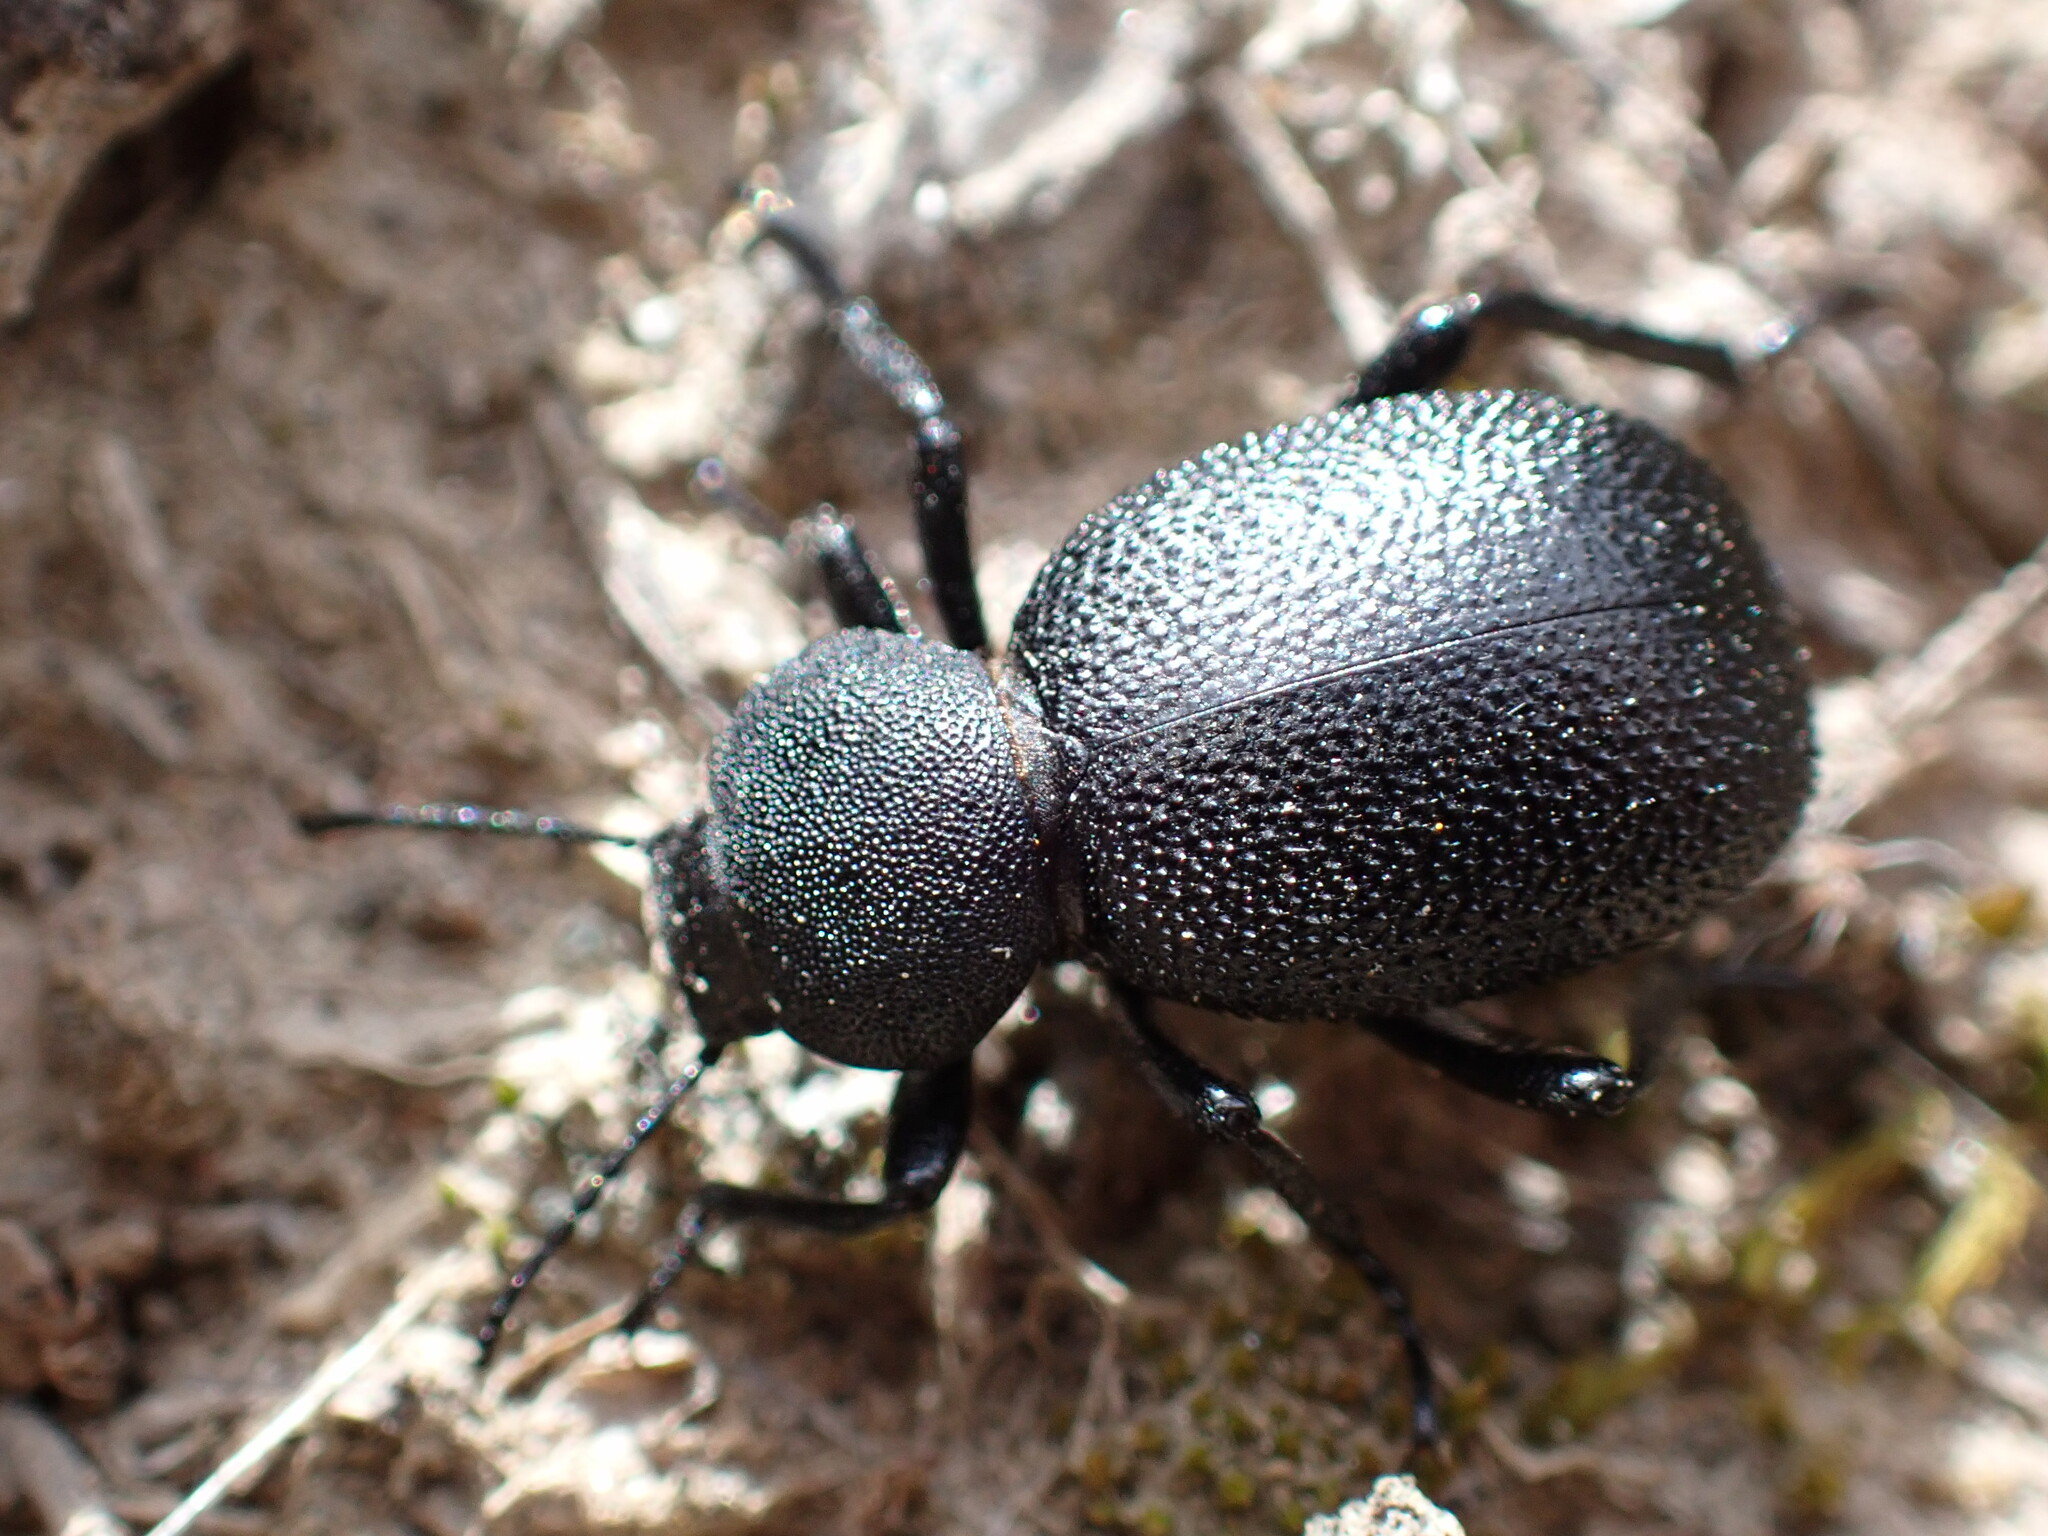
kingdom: Animalia
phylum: Arthropoda
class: Insecta
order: Coleoptera
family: Tenebrionidae
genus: Eleodes
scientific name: Eleodes novoverrucula
